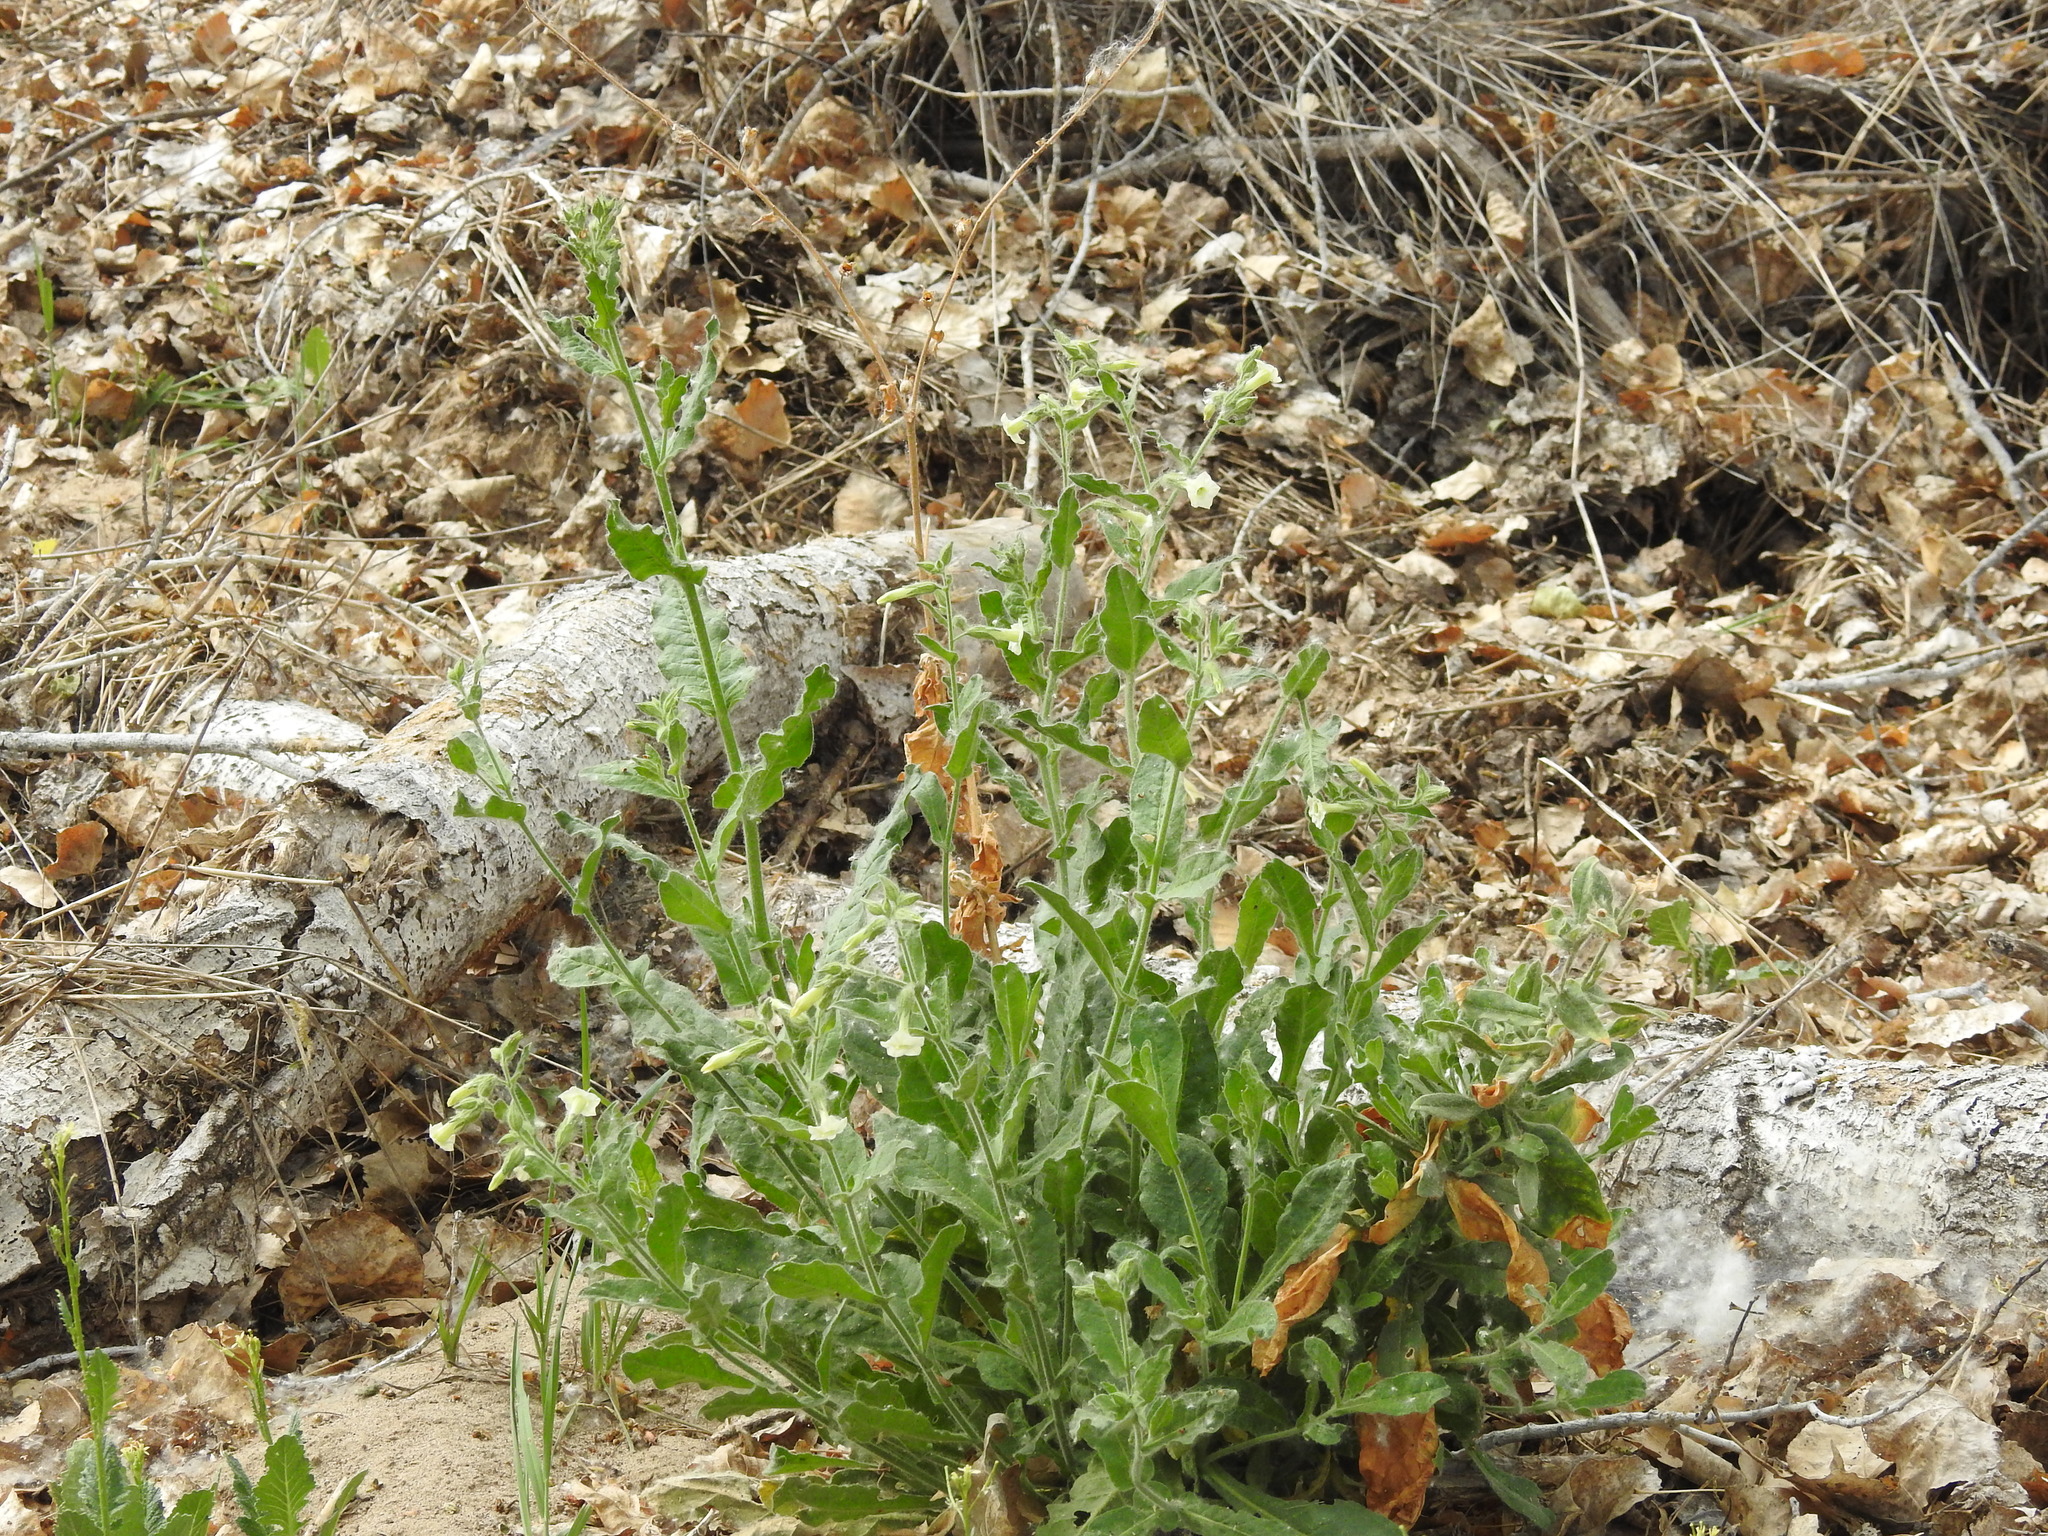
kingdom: Plantae
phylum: Tracheophyta
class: Magnoliopsida
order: Solanales
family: Solanaceae
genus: Nicotiana
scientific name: Nicotiana obtusifolia
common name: Desert tobacco
